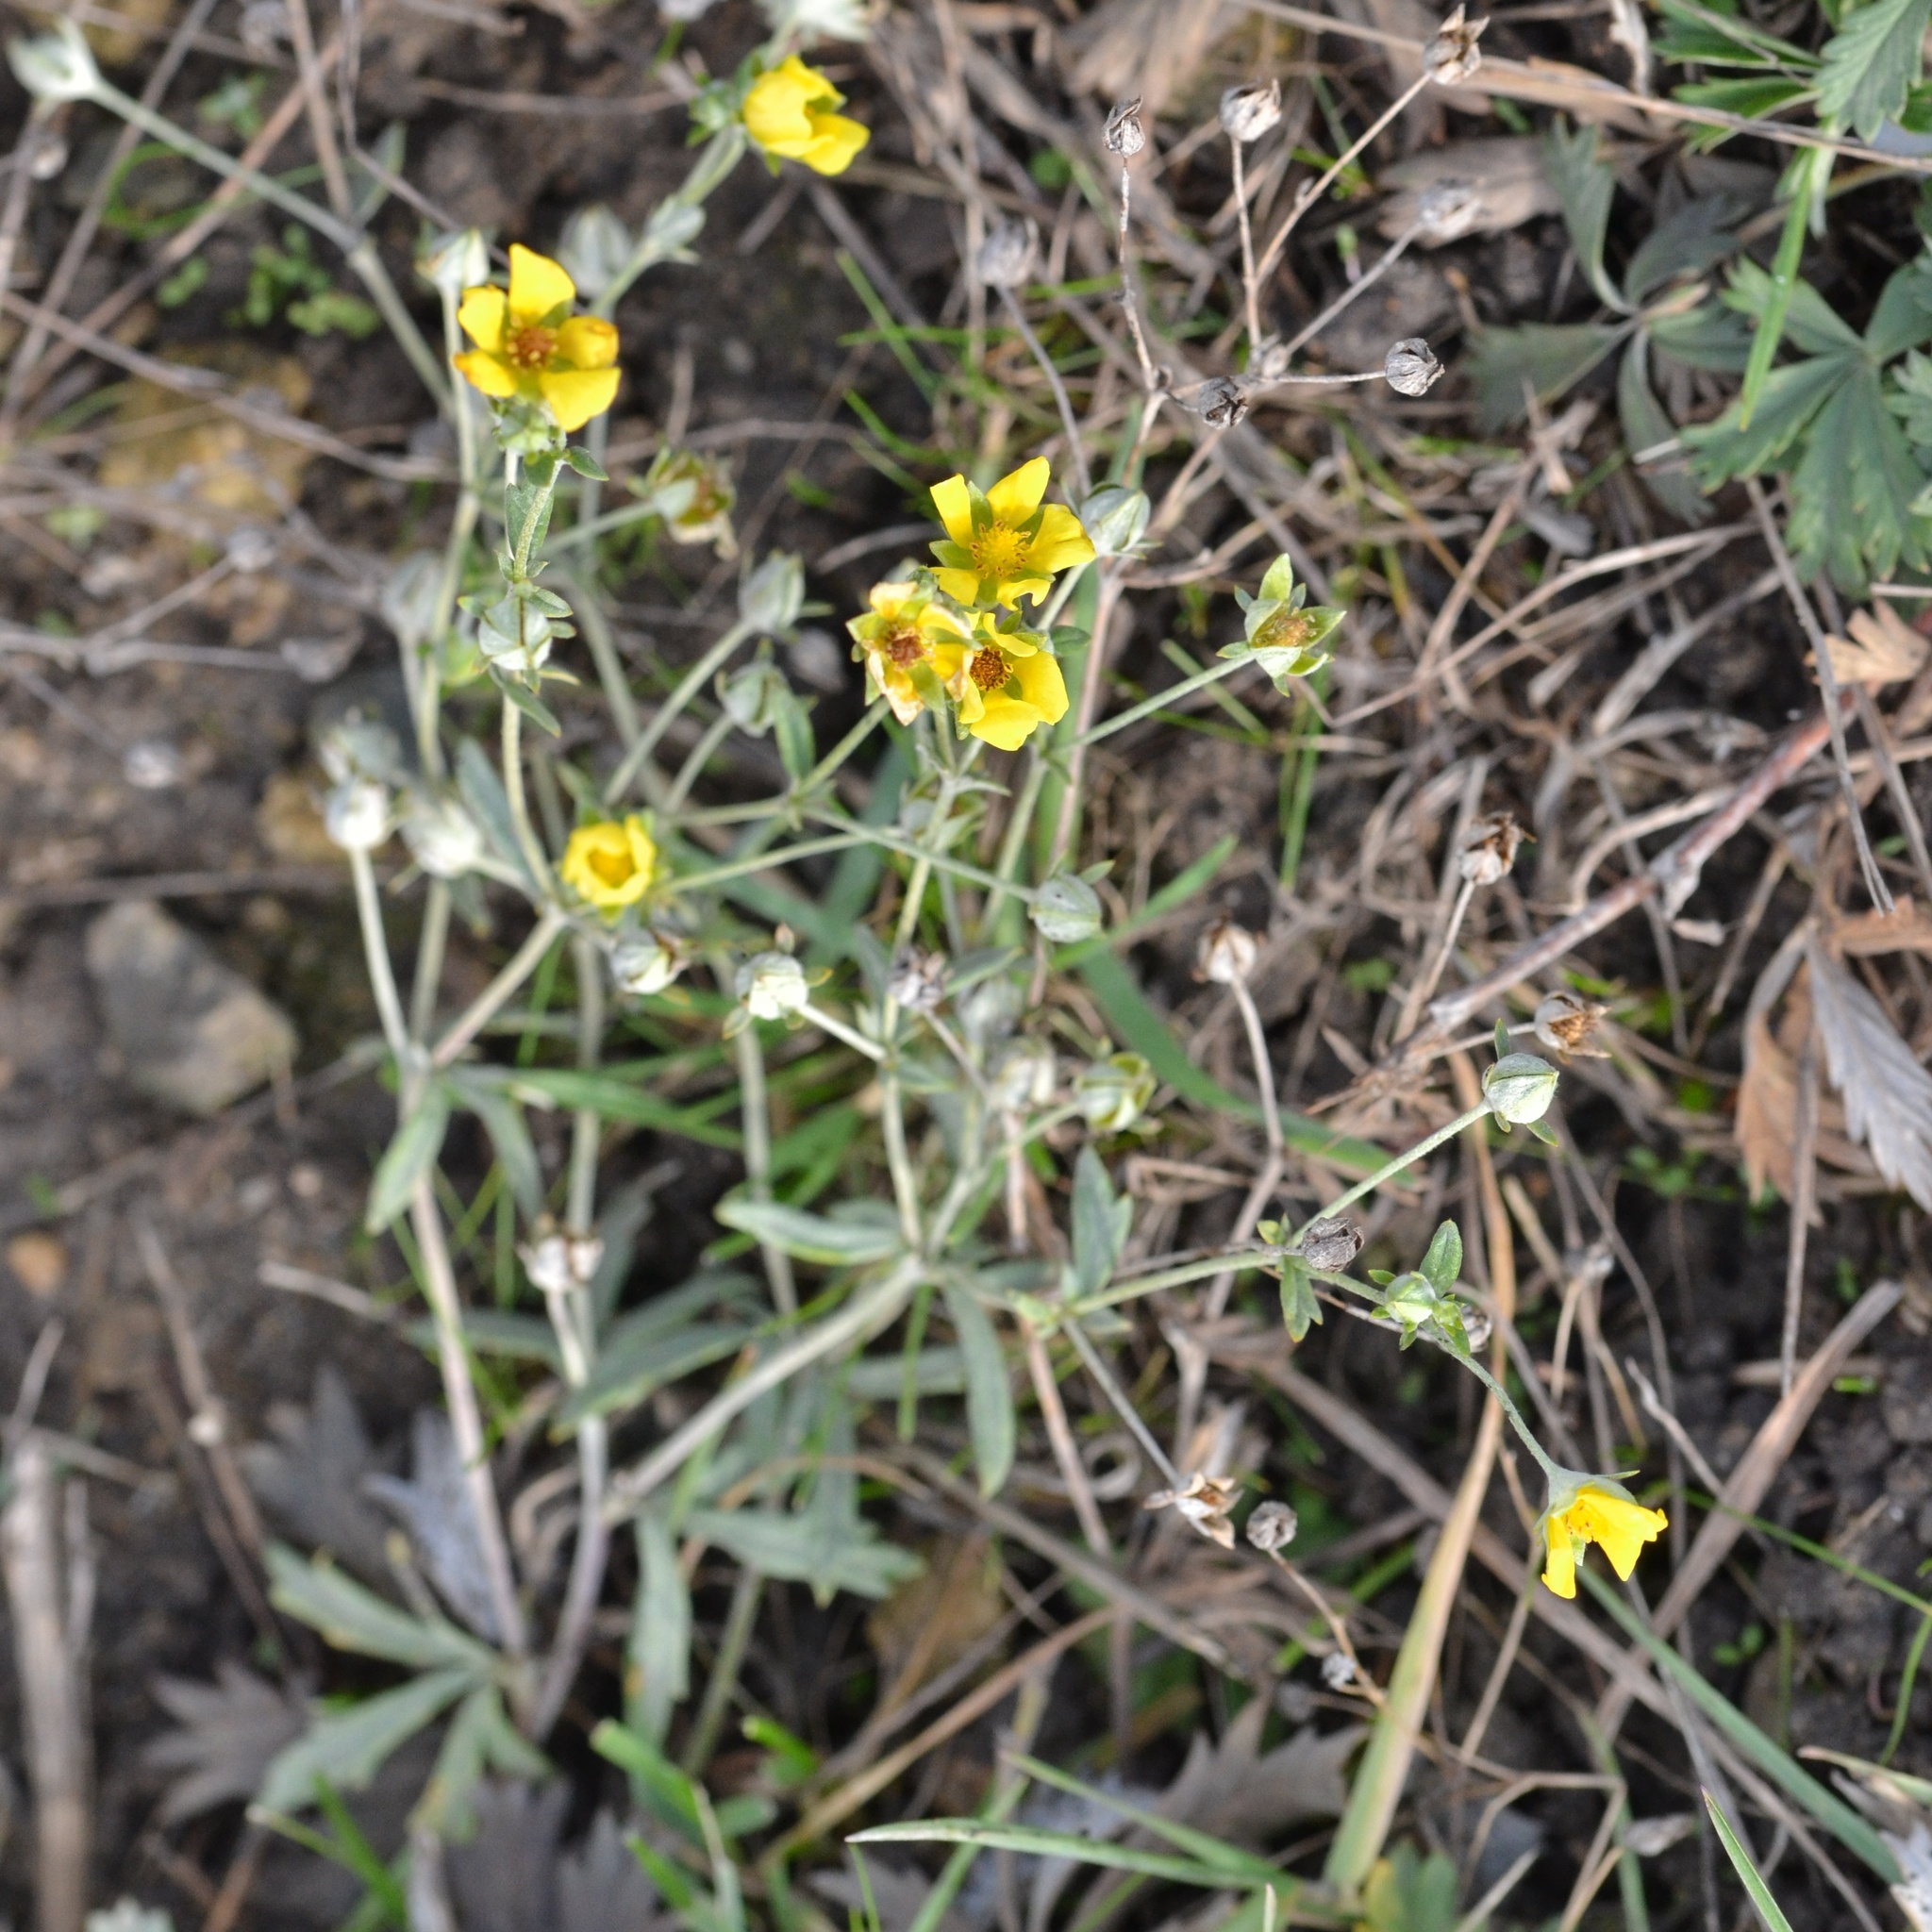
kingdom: Plantae
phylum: Tracheophyta
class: Magnoliopsida
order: Rosales
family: Rosaceae
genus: Potentilla
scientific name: Potentilla argentea
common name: Hoary cinquefoil
